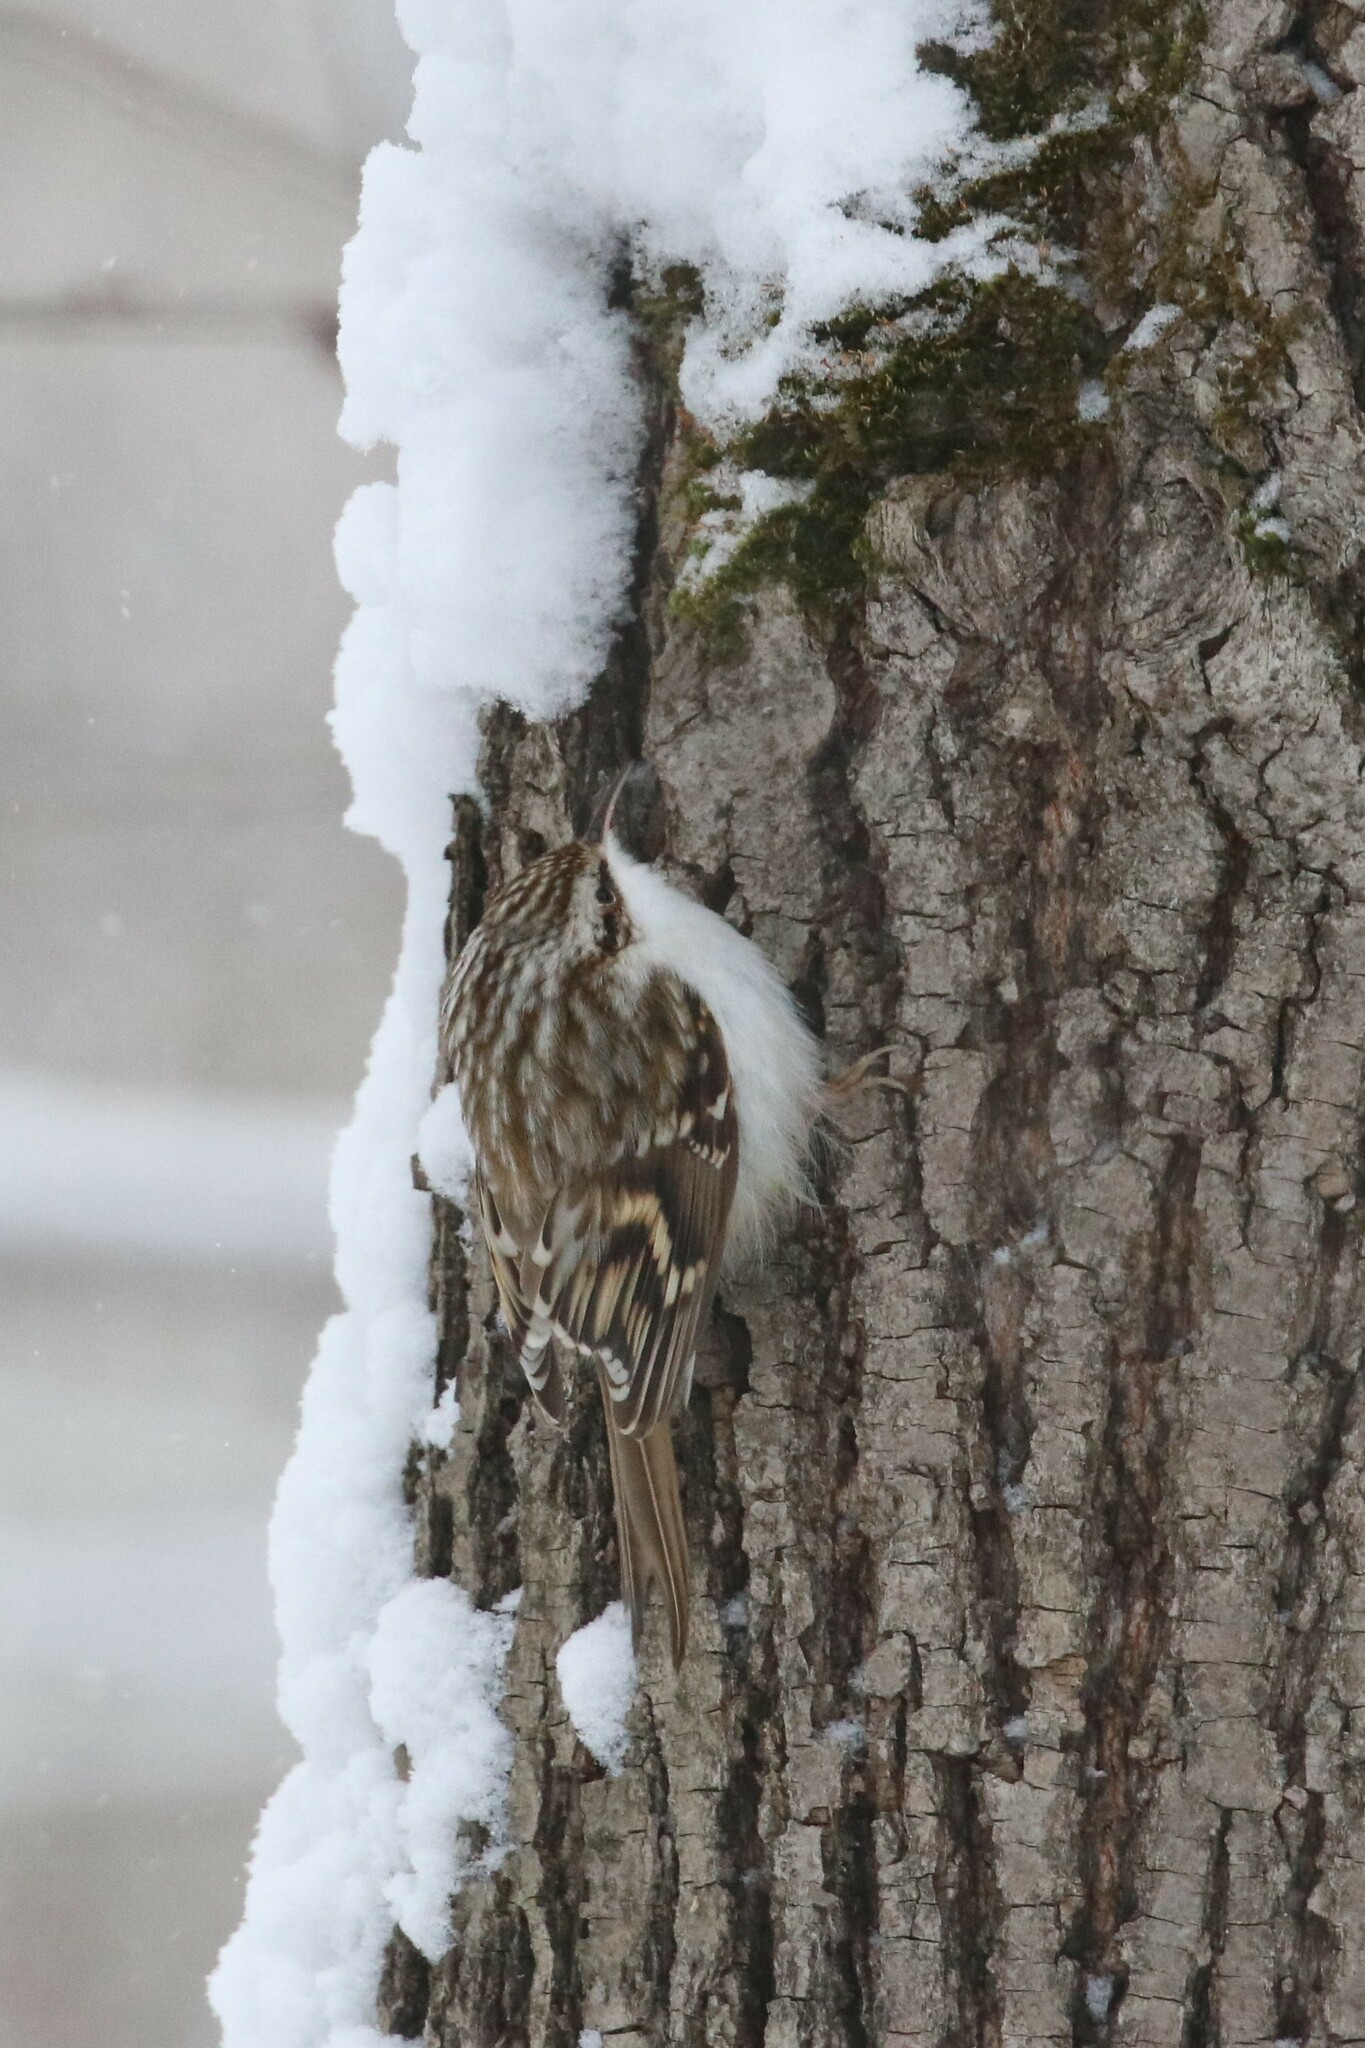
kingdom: Animalia
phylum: Chordata
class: Aves
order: Passeriformes
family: Certhiidae
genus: Certhia
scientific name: Certhia familiaris
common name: Eurasian treecreeper
